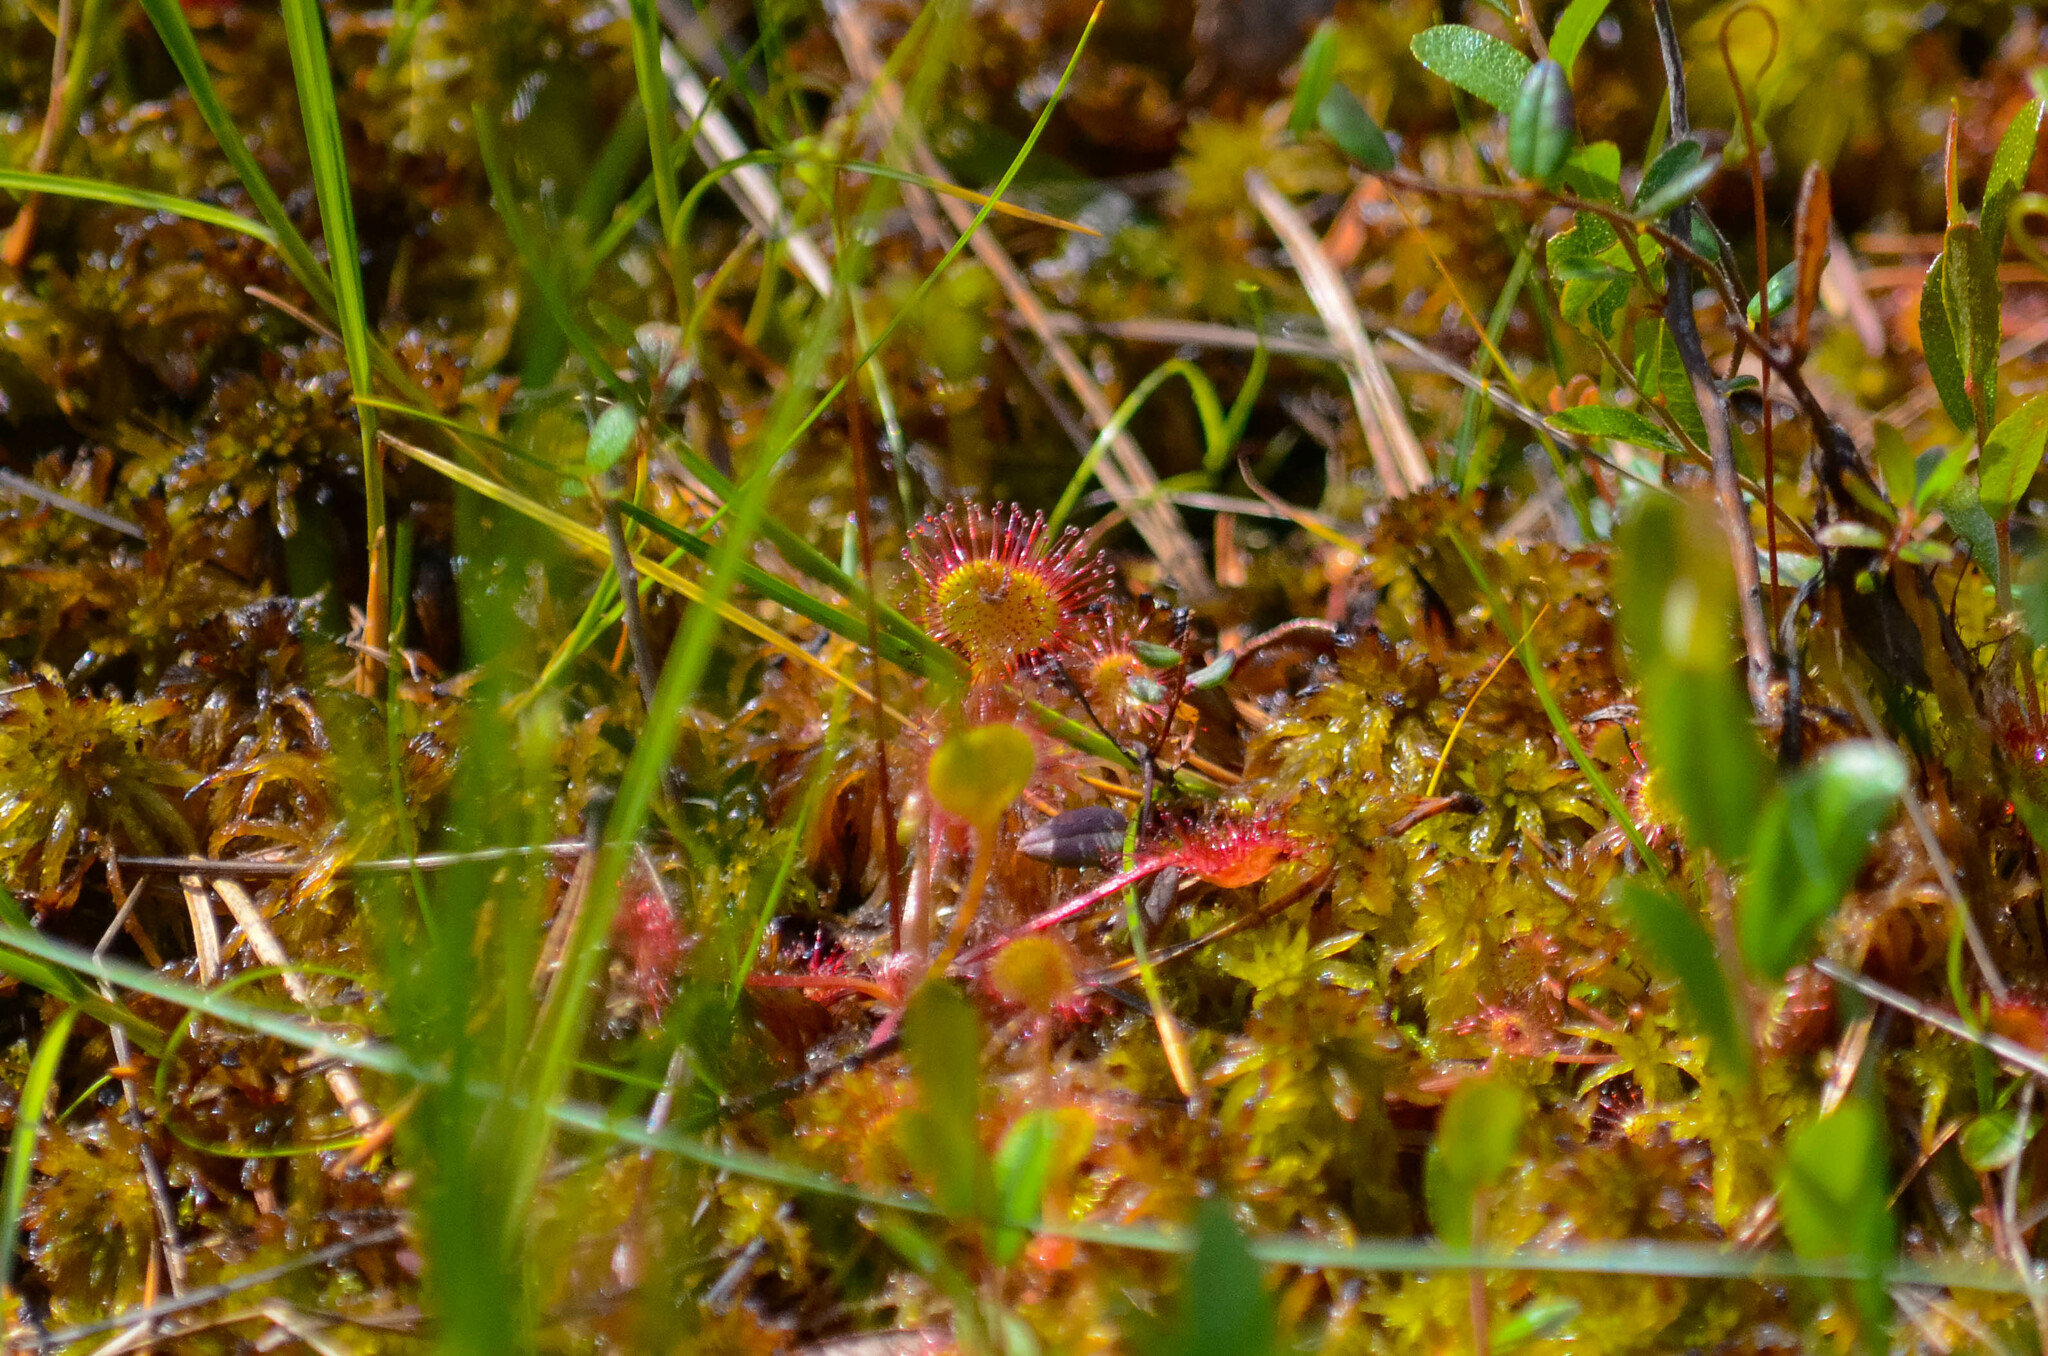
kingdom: Plantae
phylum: Tracheophyta
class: Magnoliopsida
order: Caryophyllales
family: Droseraceae
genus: Drosera
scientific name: Drosera rotundifolia
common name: Round-leaved sundew
